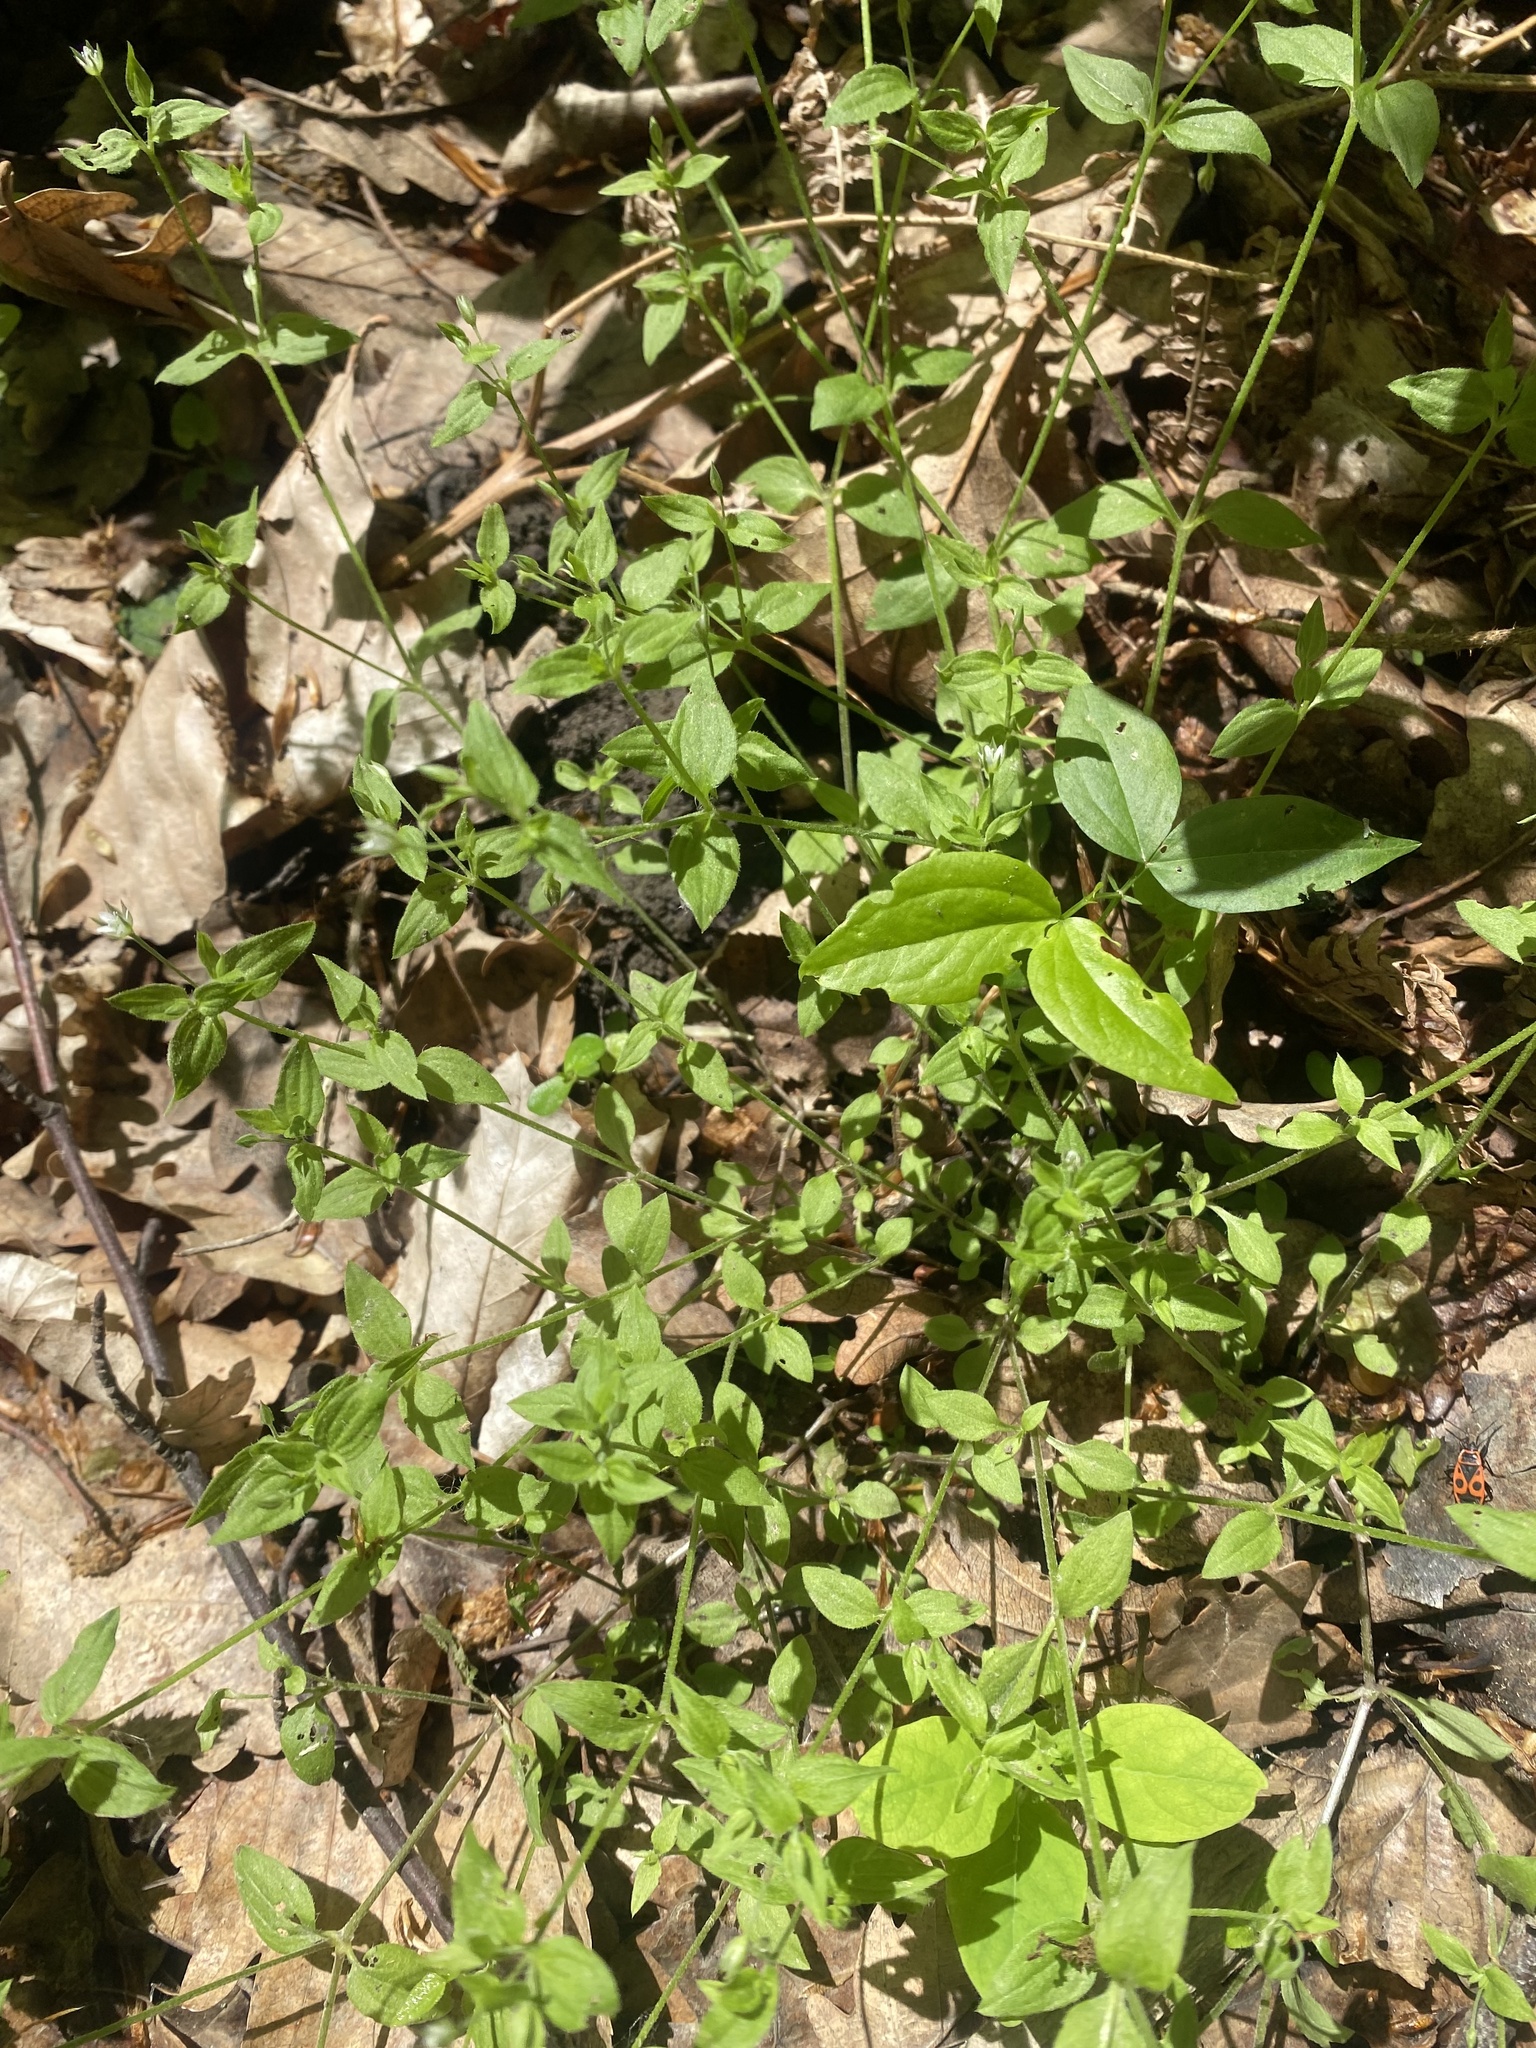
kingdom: Plantae
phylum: Tracheophyta
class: Magnoliopsida
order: Caryophyllales
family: Caryophyllaceae
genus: Moehringia
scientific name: Moehringia trinervia
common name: Three-nerved sandwort
